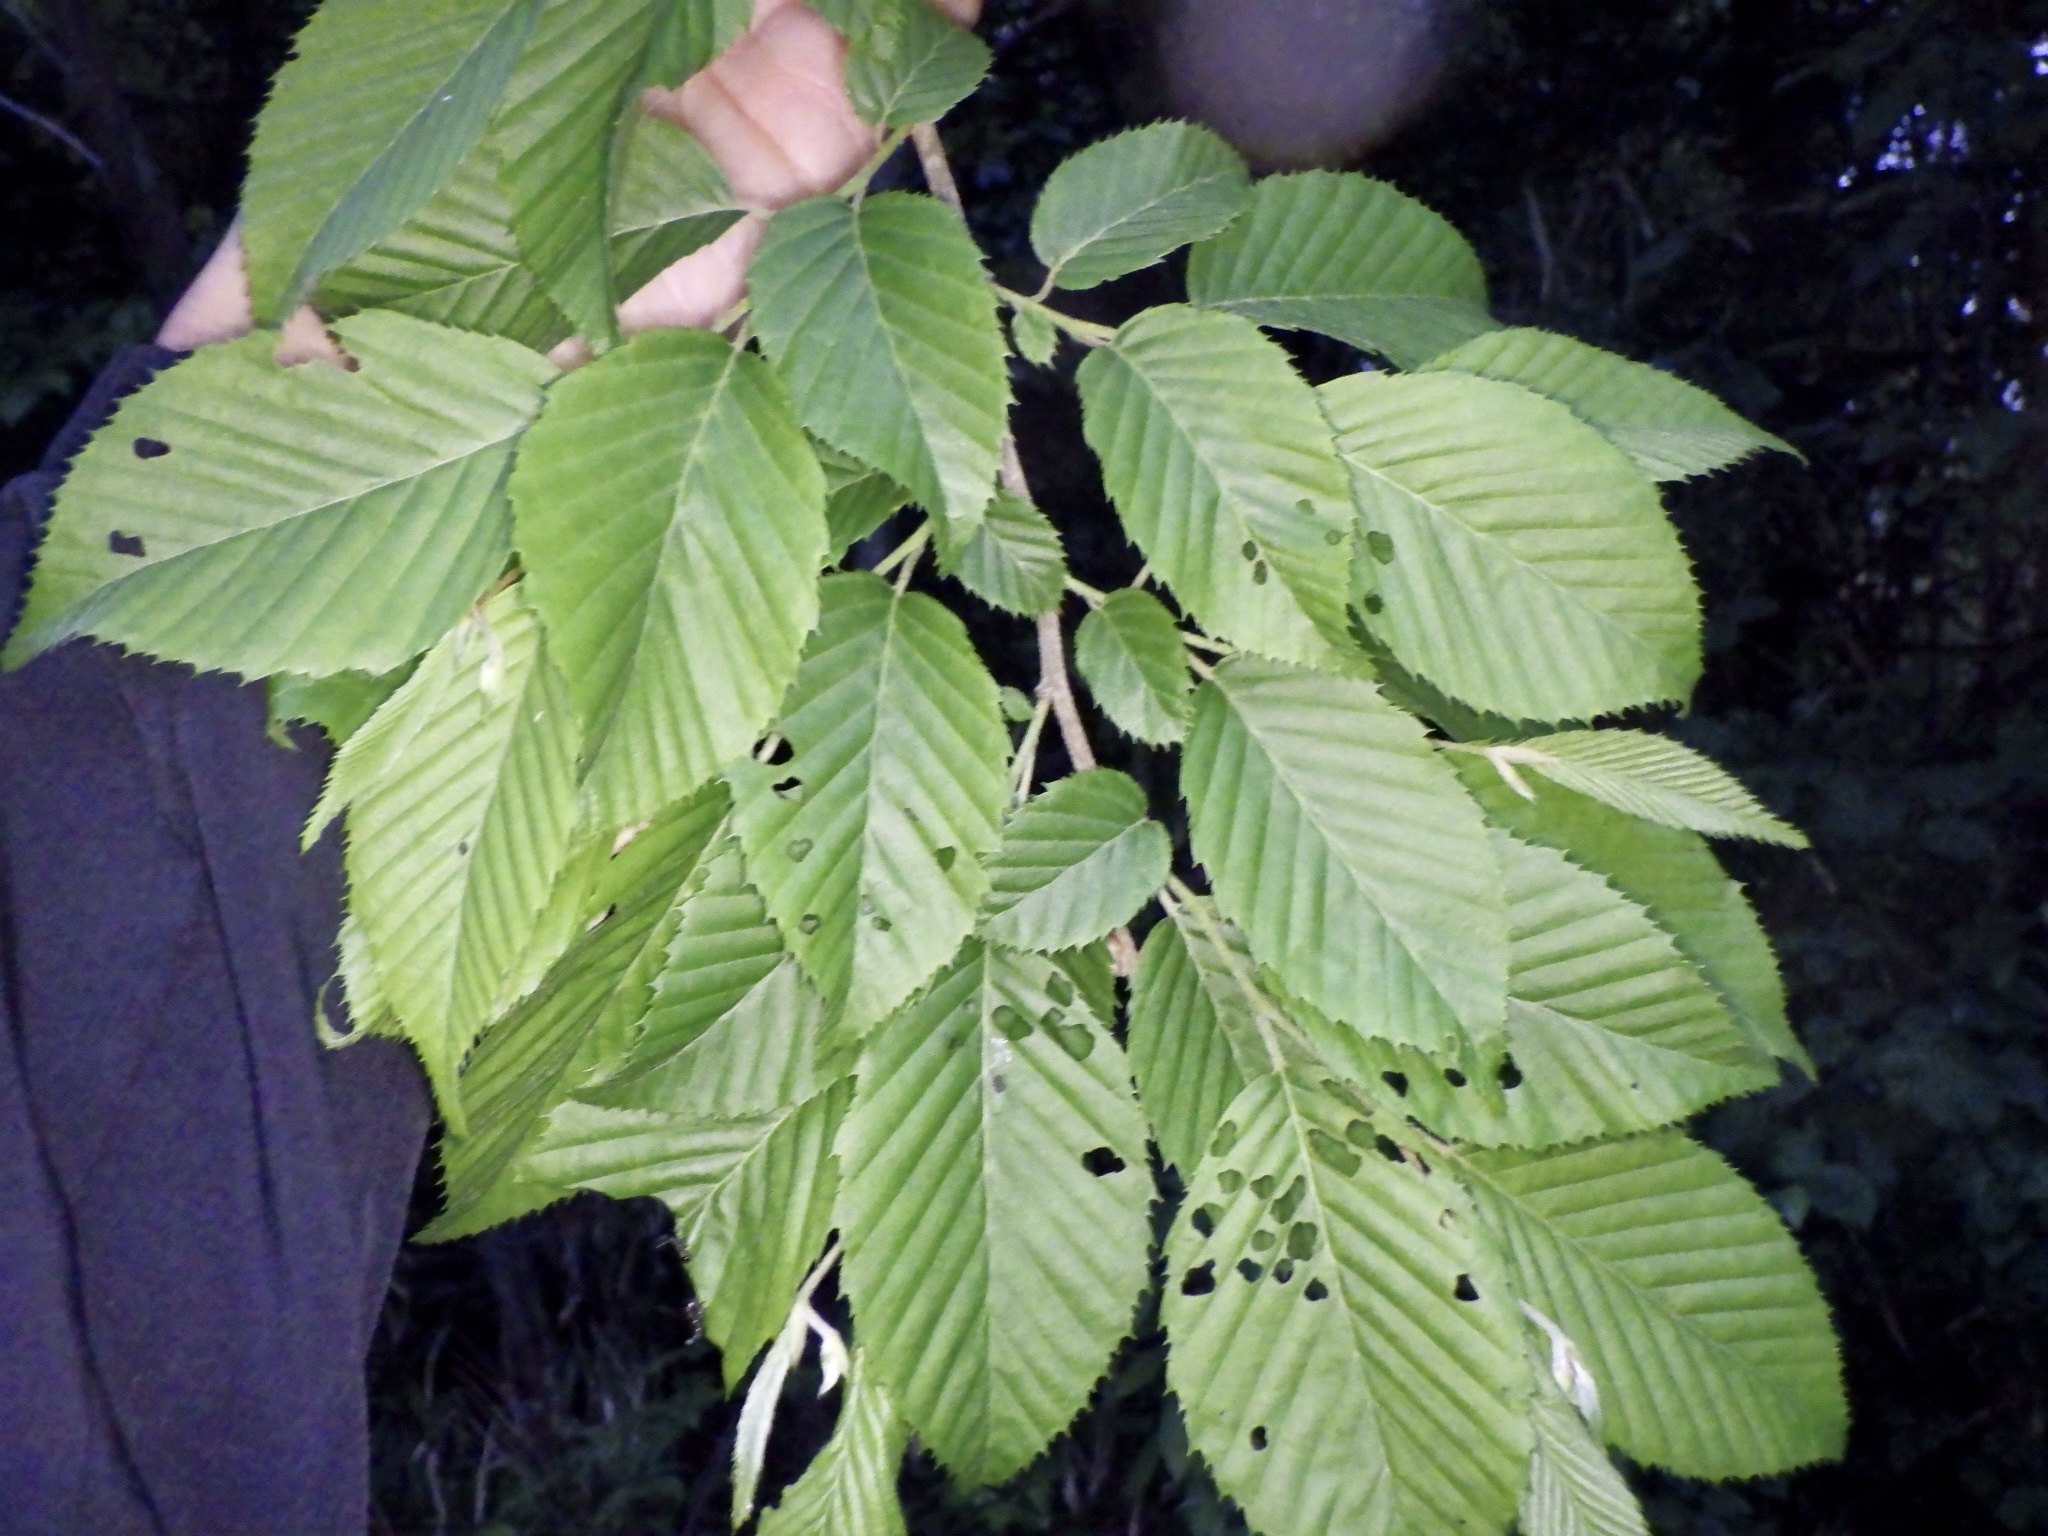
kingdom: Plantae
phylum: Tracheophyta
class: Magnoliopsida
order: Fagales
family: Betulaceae
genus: Carpinus
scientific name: Carpinus tschonoskii
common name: Asian hornbeam
